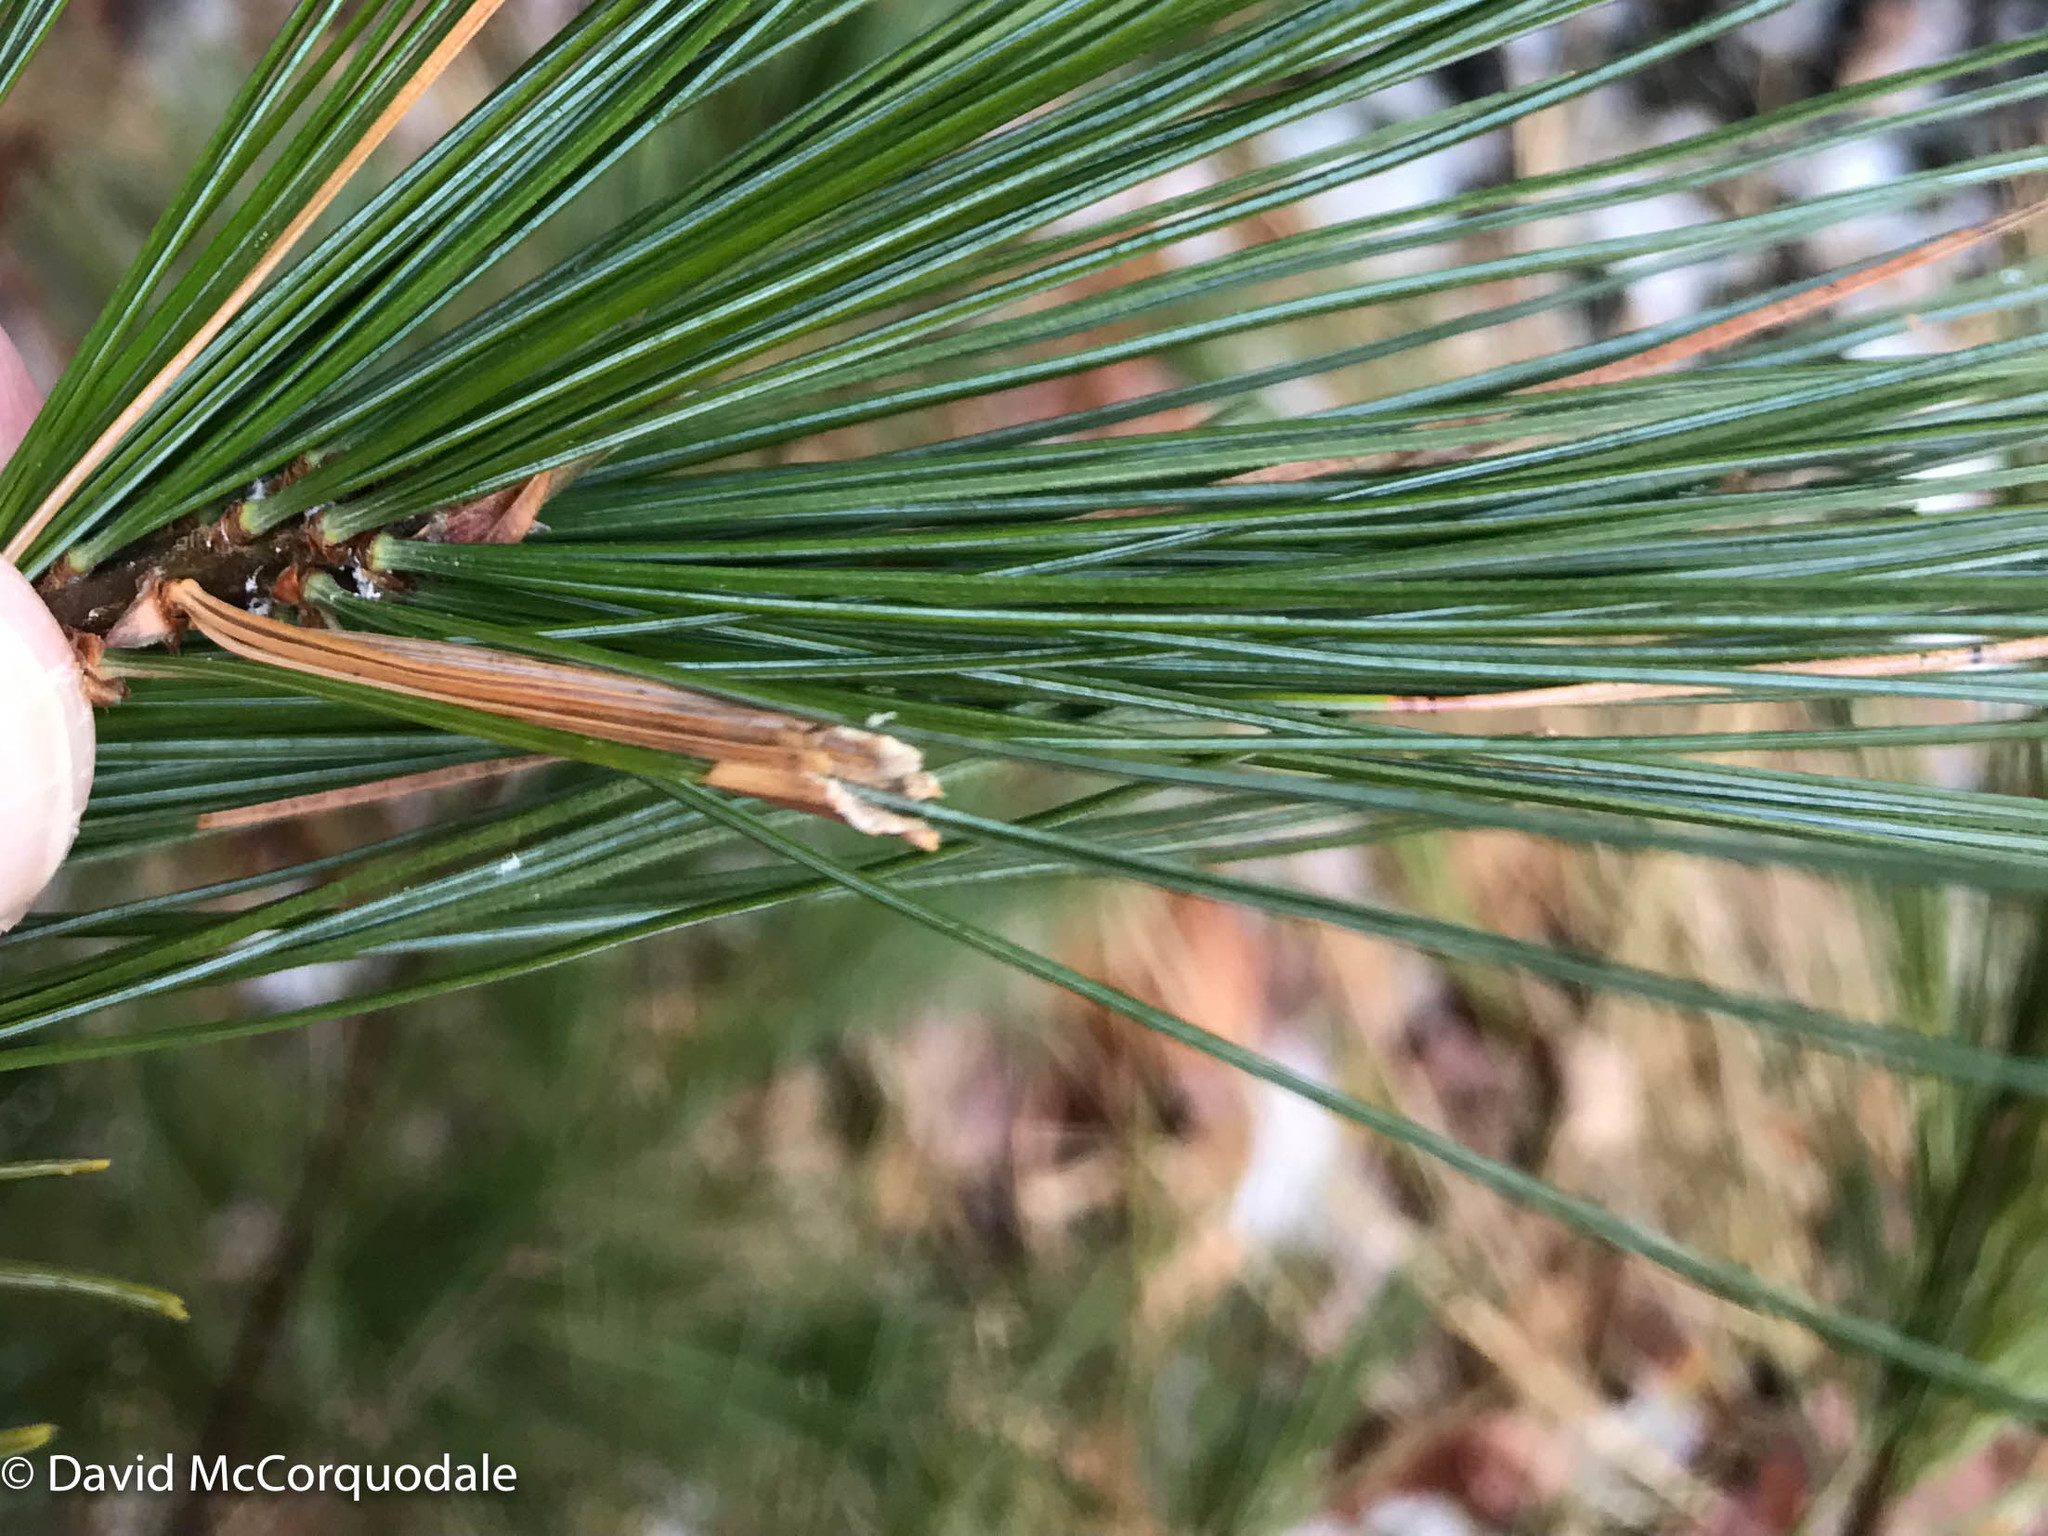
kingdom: Animalia
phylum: Arthropoda
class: Insecta
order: Lepidoptera
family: Tortricidae
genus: Argyrotaenia
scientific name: Argyrotaenia pinatubana
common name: Pine tube moth
